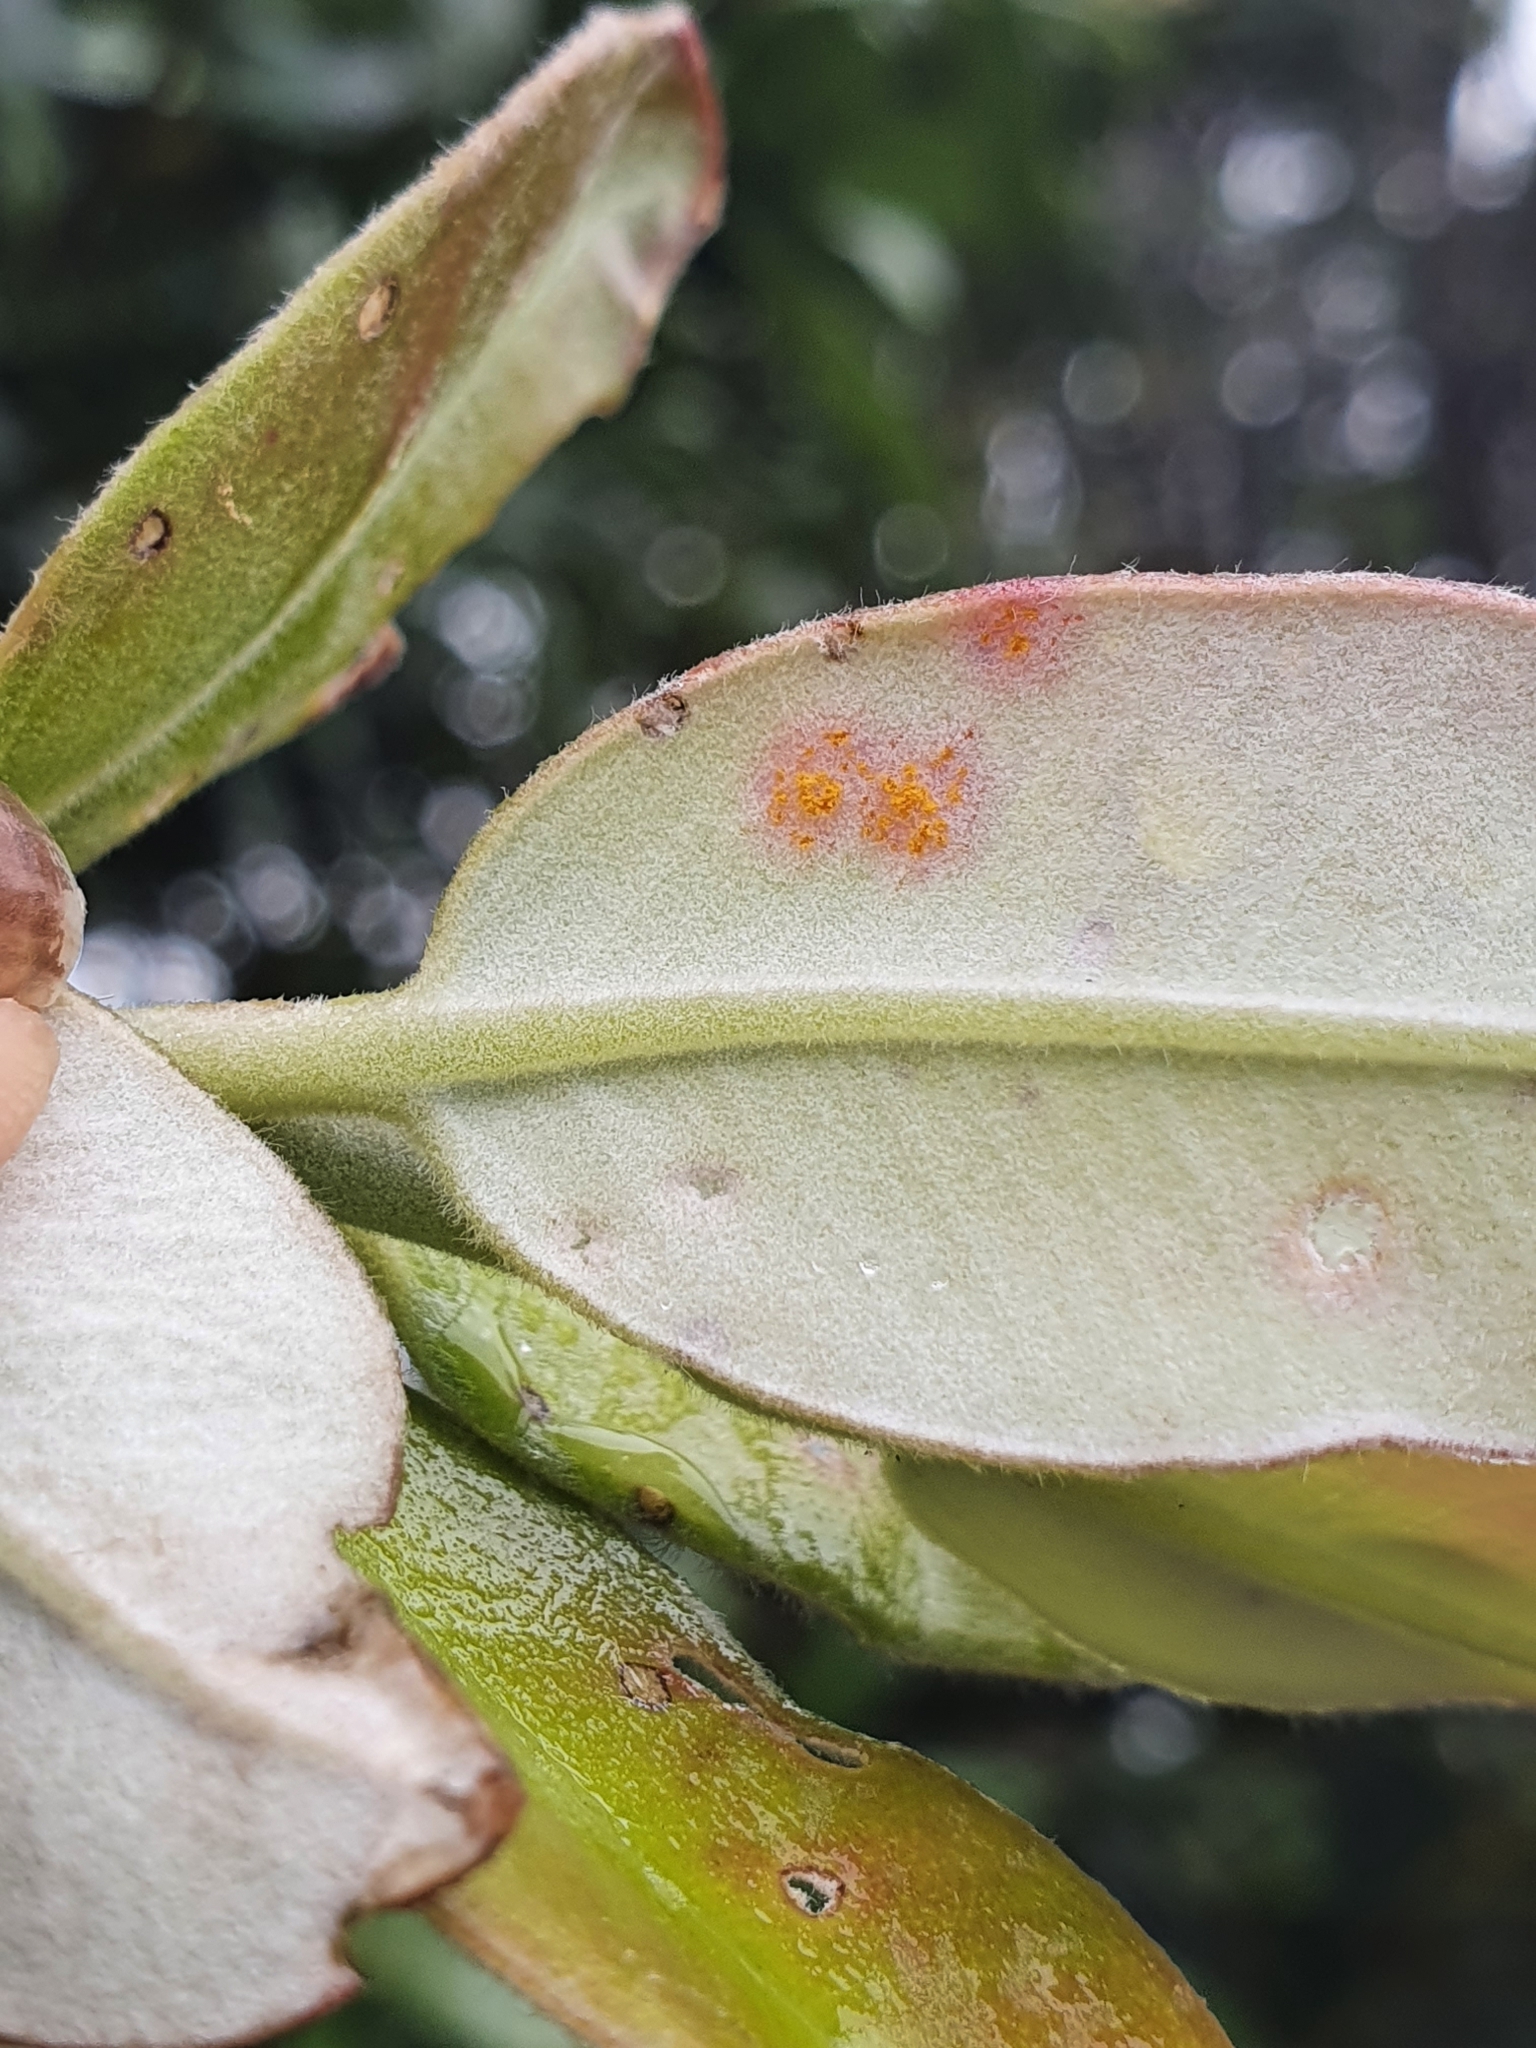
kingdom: Fungi
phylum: Basidiomycota
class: Pucciniomycetes
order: Pucciniales
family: Sphaerophragmiaceae
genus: Austropuccinia
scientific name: Austropuccinia psidii
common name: Myrtle rust
